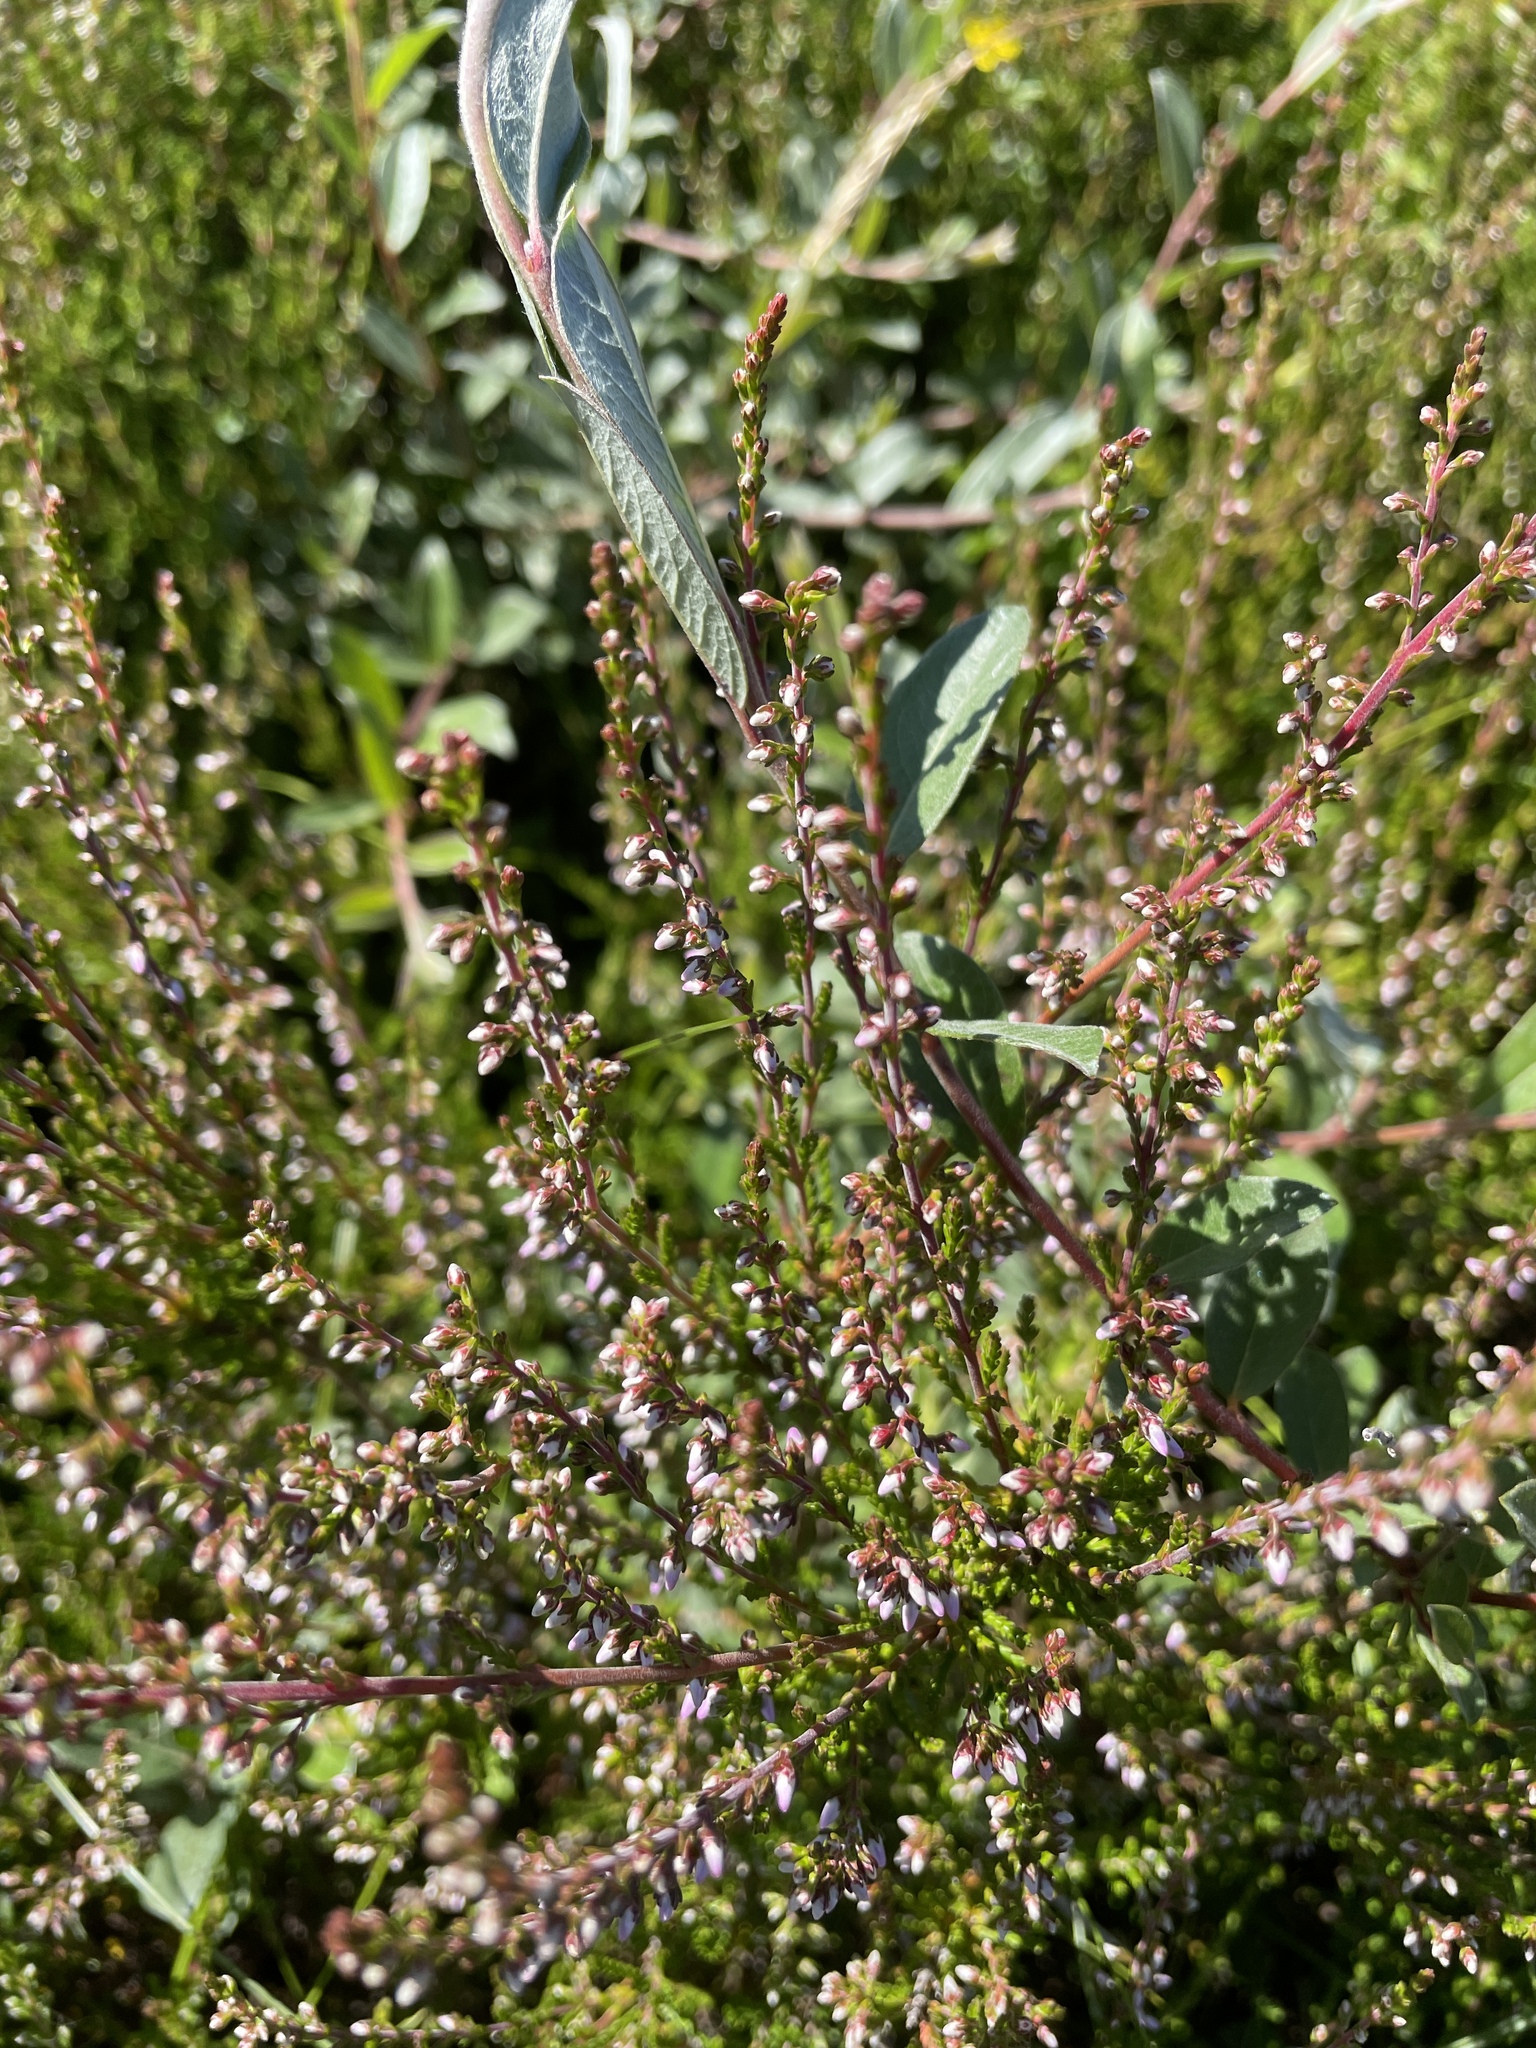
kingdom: Plantae
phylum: Tracheophyta
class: Magnoliopsida
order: Ericales
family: Ericaceae
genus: Calluna
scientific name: Calluna vulgaris
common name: Heather
